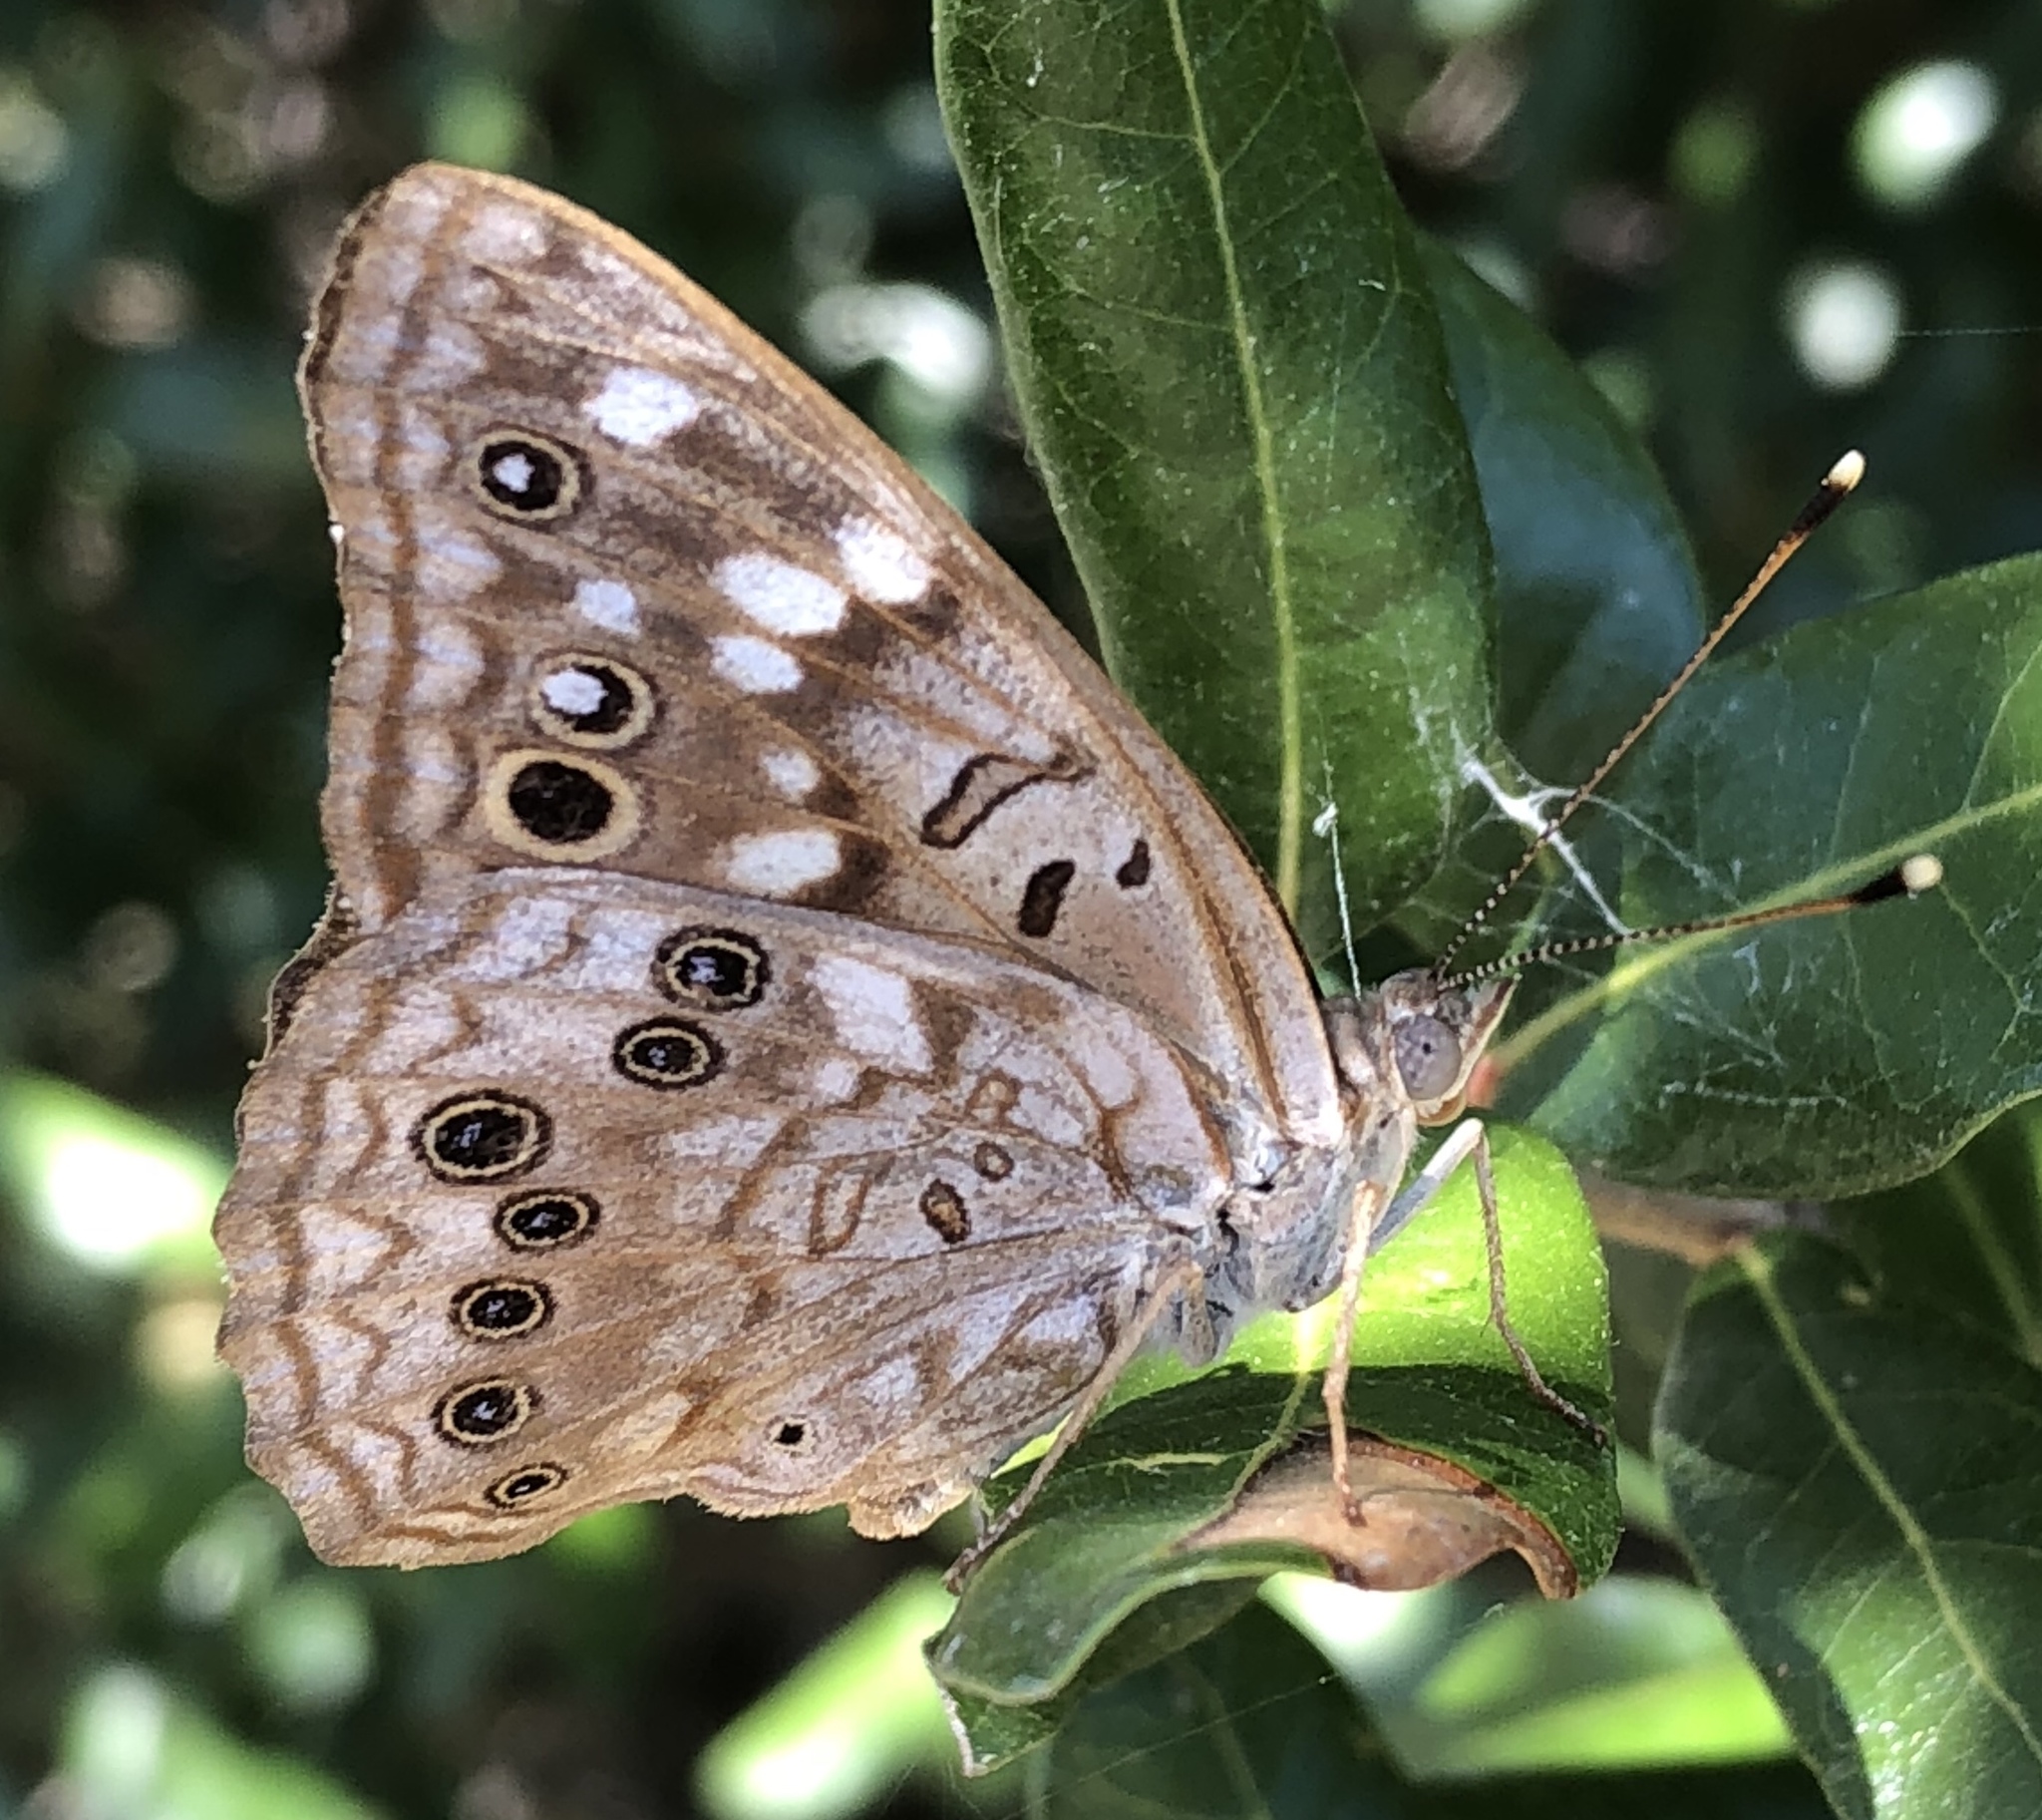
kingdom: Animalia
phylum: Arthropoda
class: Insecta
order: Lepidoptera
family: Nymphalidae
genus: Asterocampa
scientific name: Asterocampa celtis
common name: Hackberry emperor
